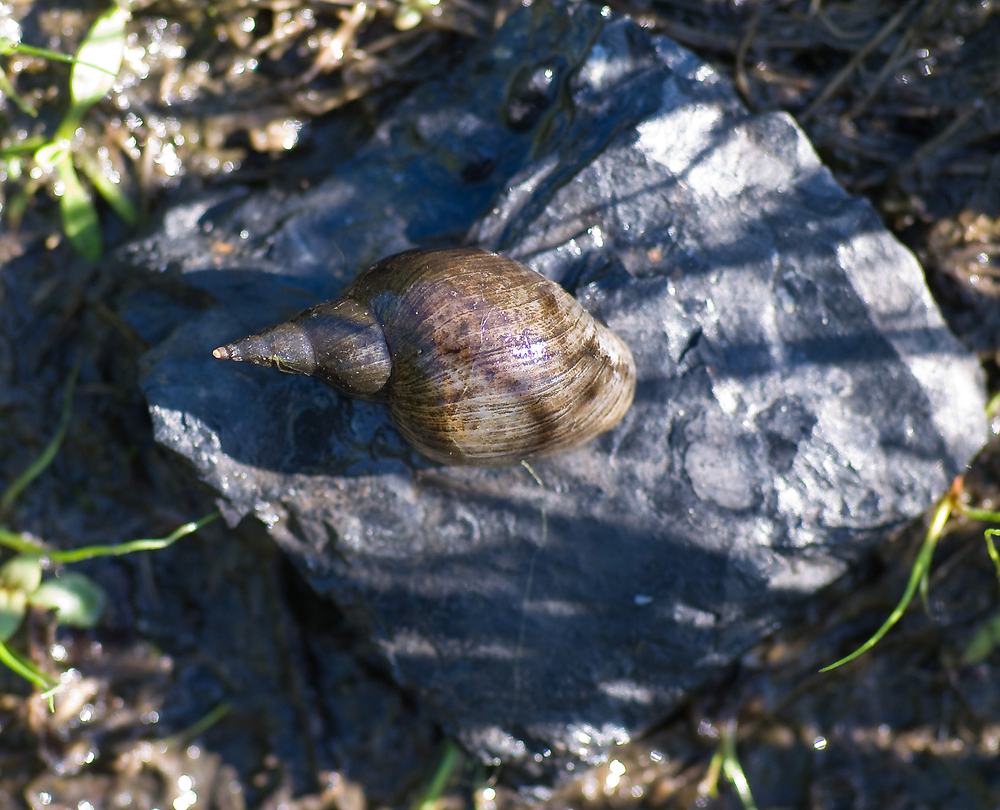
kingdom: Animalia
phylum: Mollusca
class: Gastropoda
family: Lymnaeidae
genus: Lymnaea
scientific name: Lymnaea stagnalis
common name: Great pond snail
